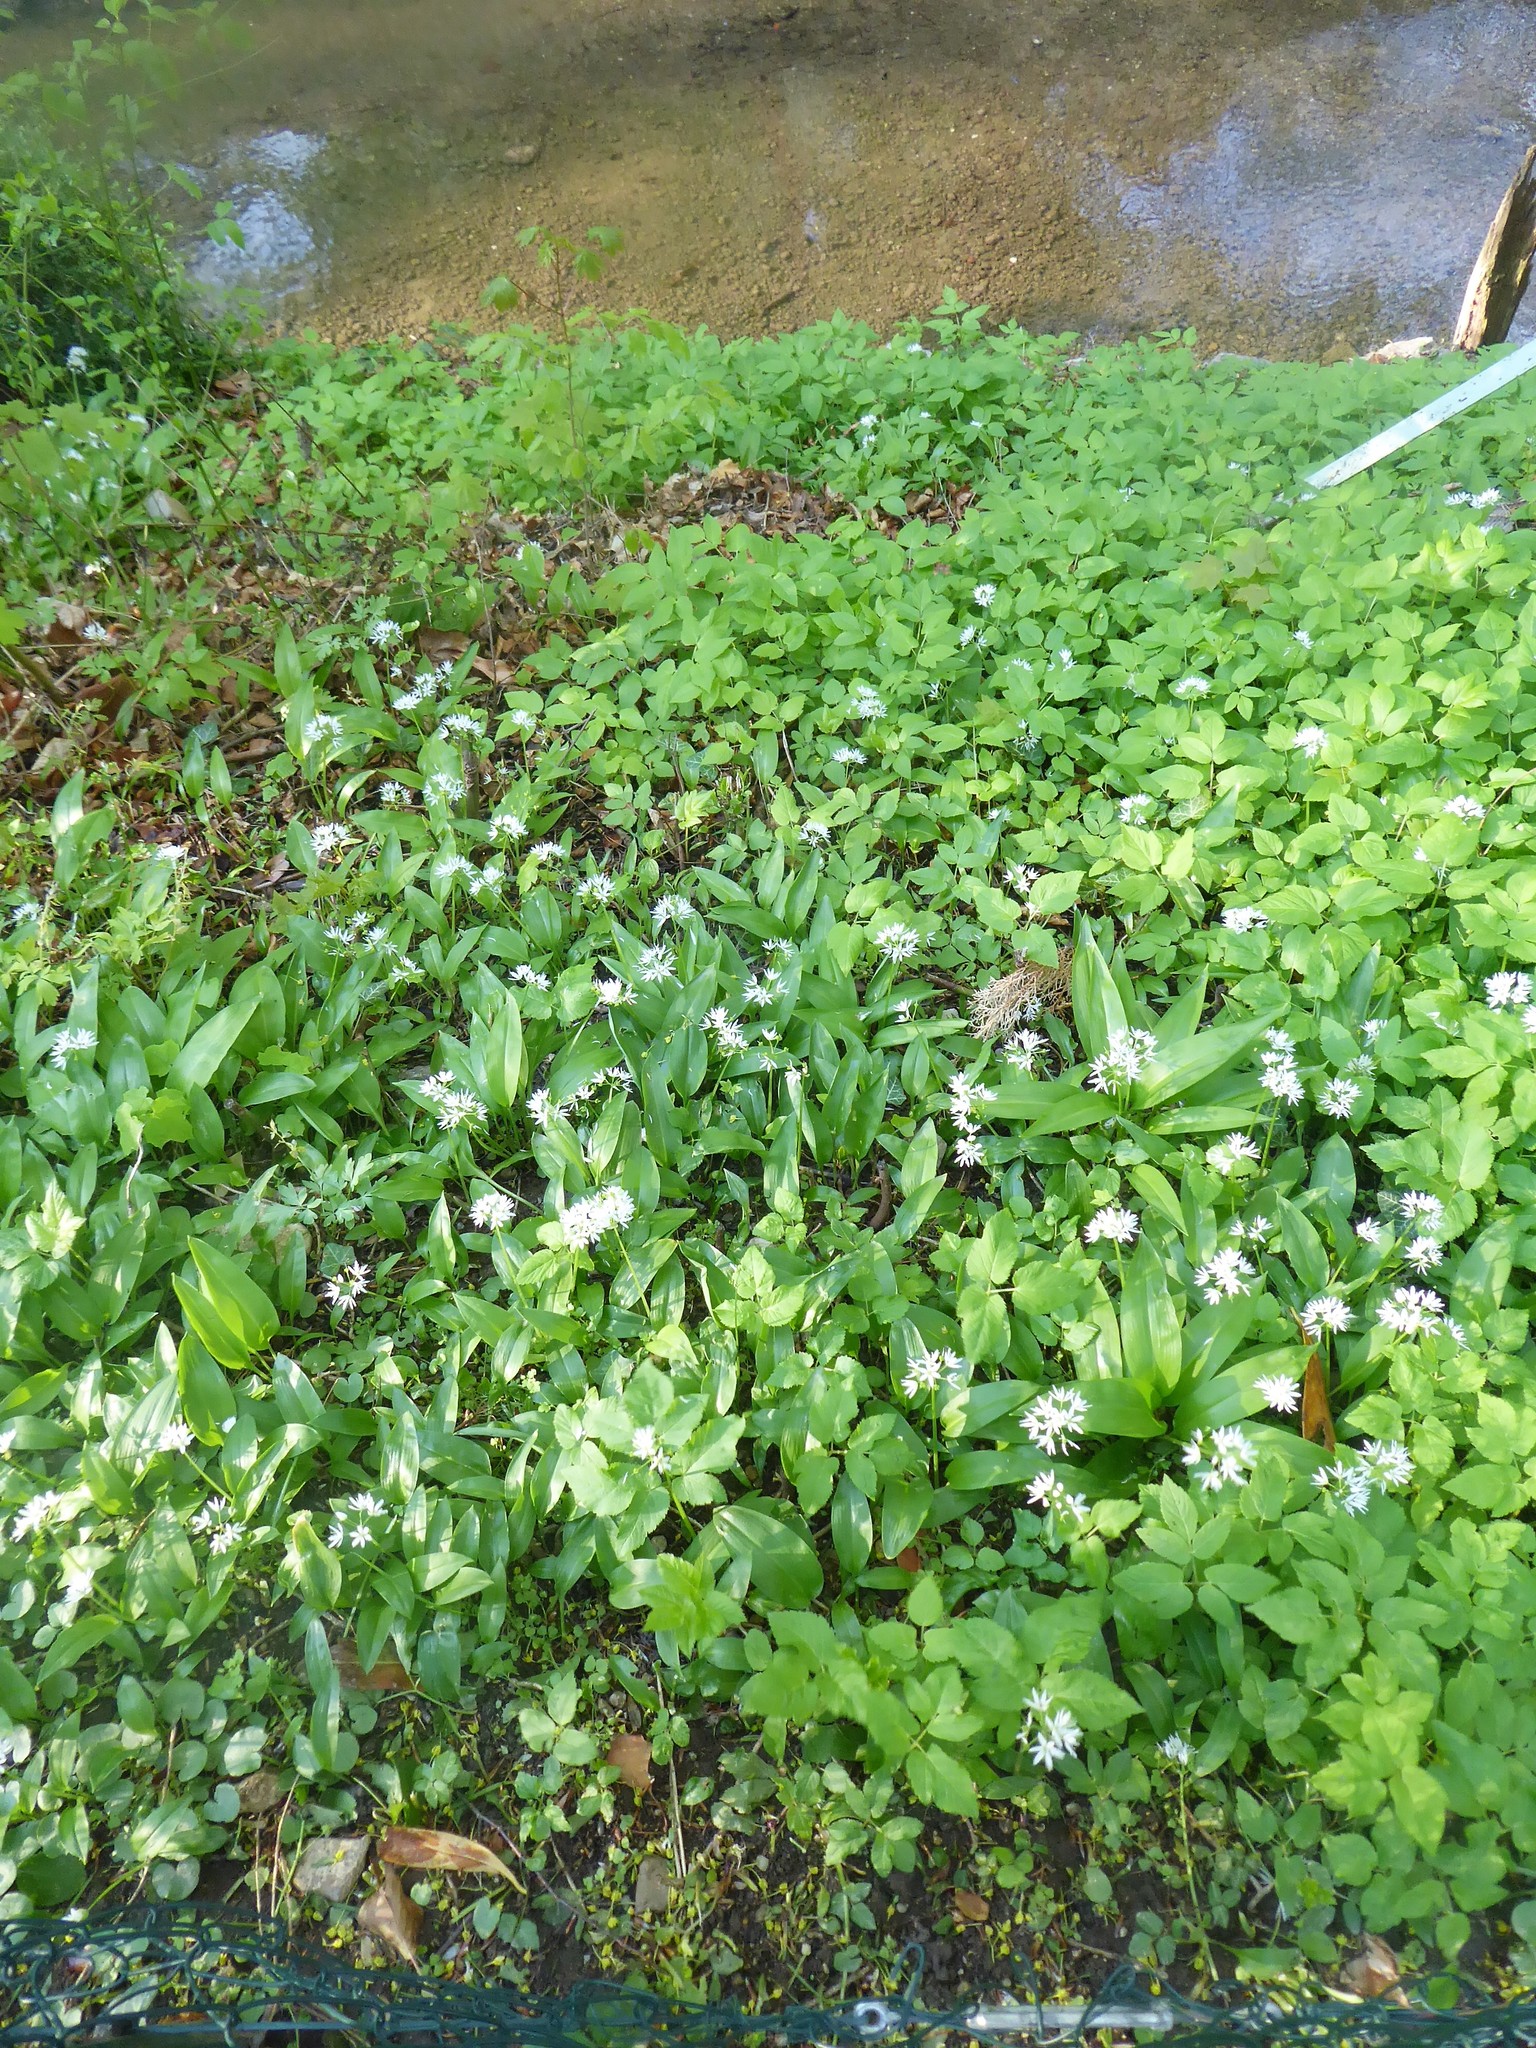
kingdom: Plantae
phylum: Tracheophyta
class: Liliopsida
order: Asparagales
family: Amaryllidaceae
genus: Allium
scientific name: Allium ursinum
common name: Ramsons
